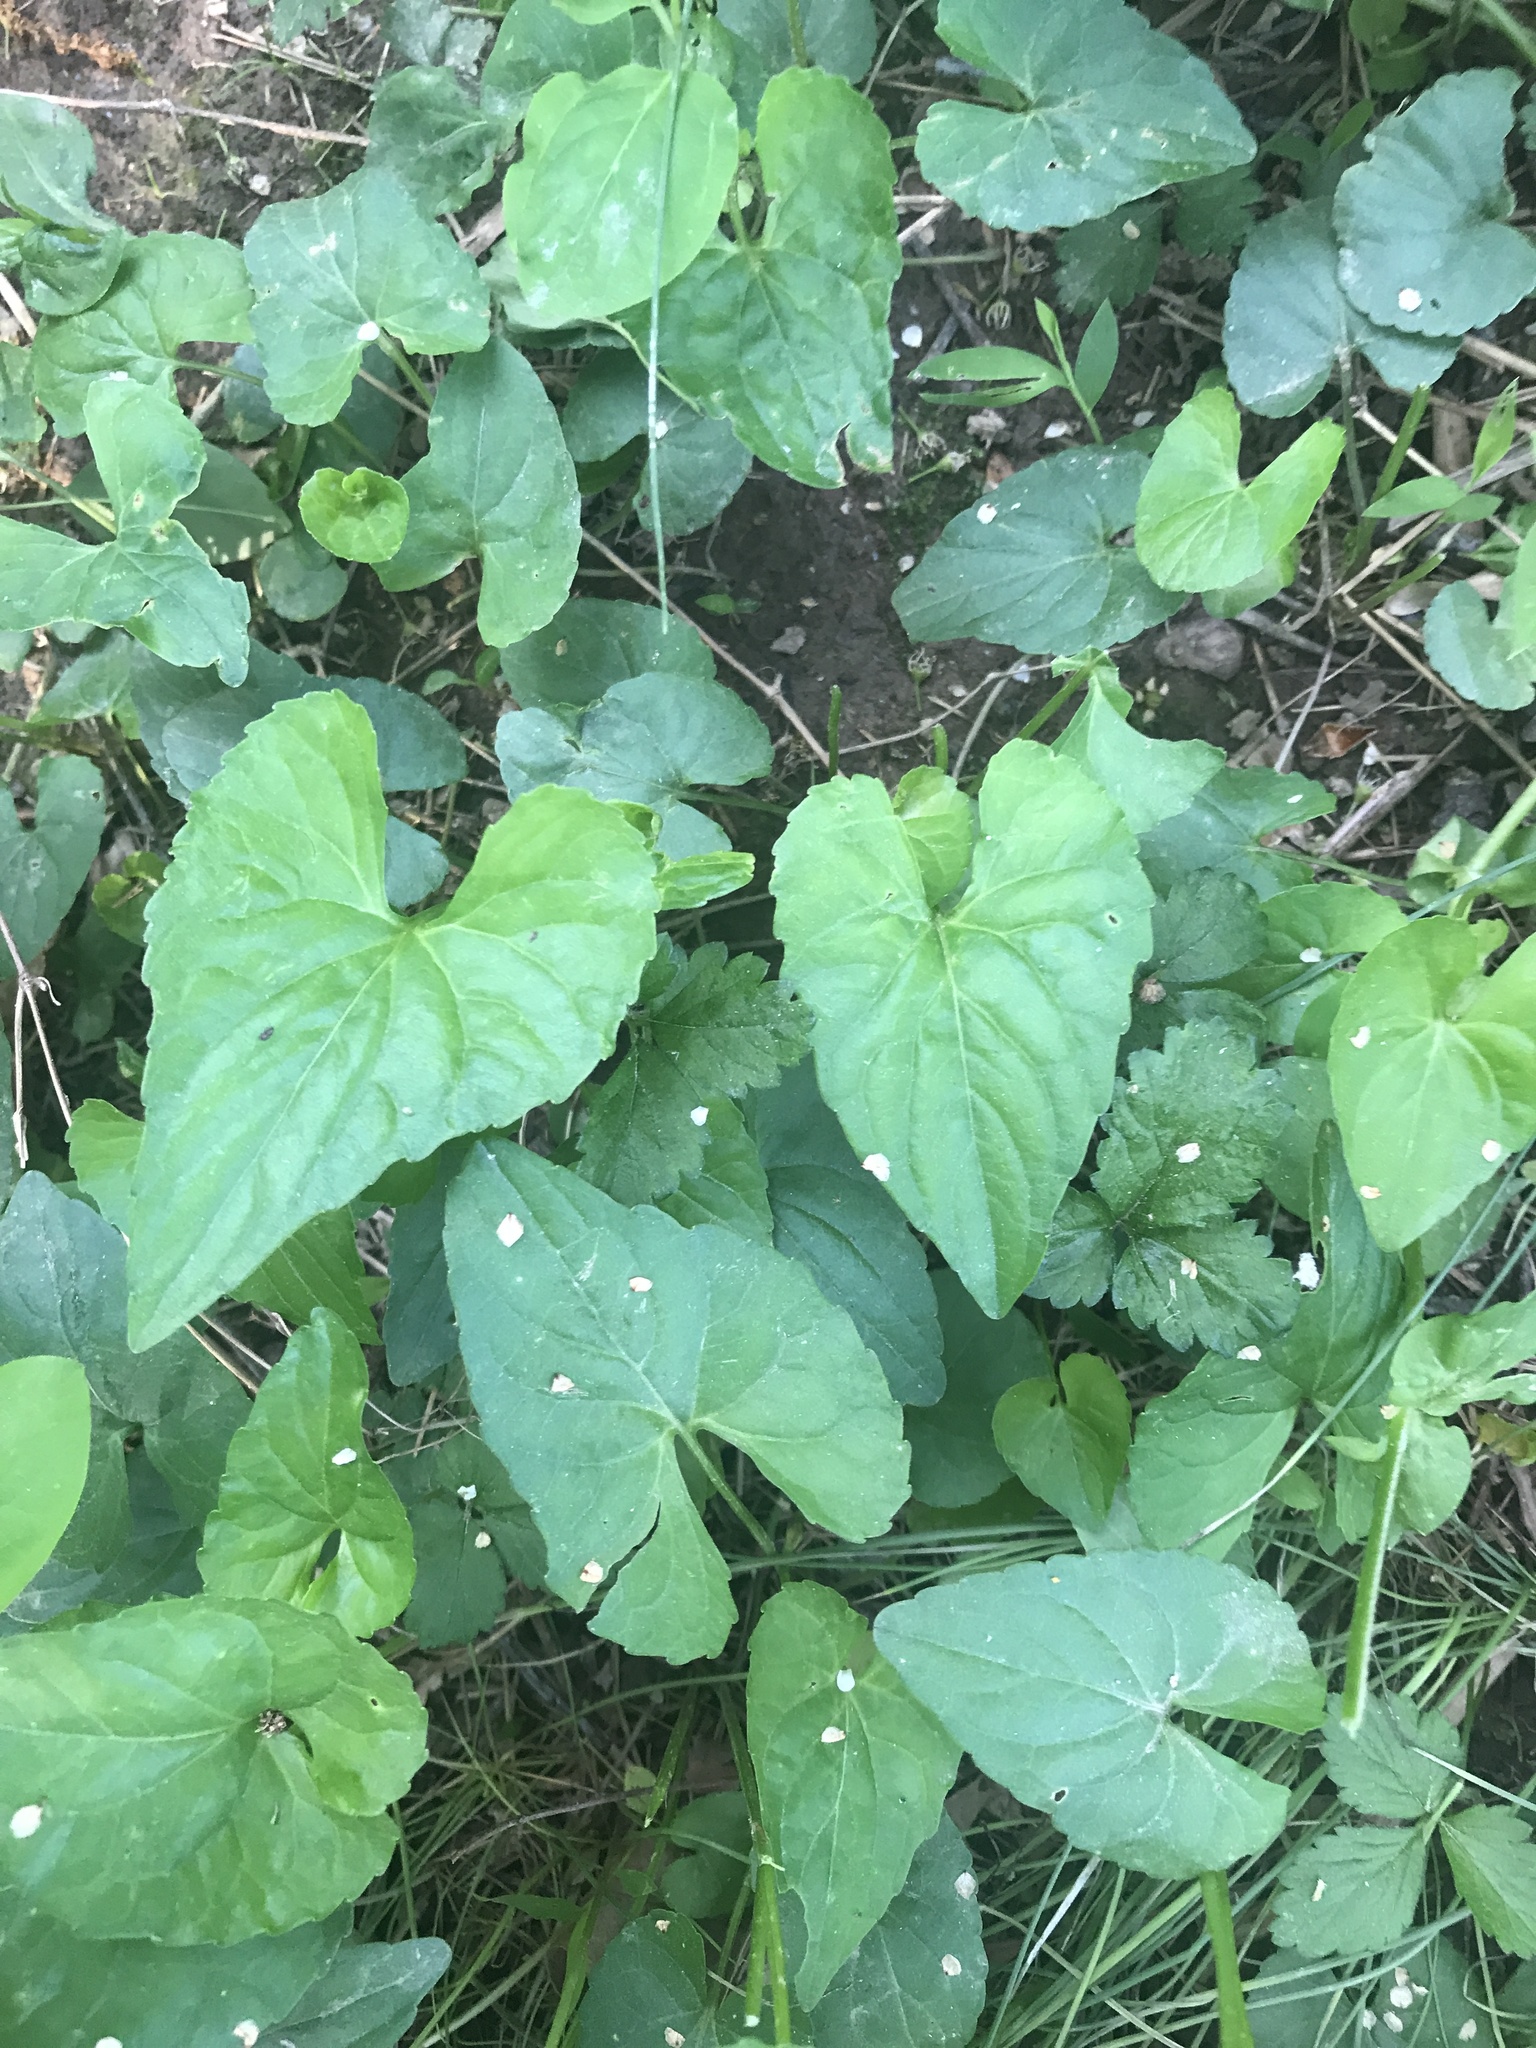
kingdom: Plantae
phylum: Tracheophyta
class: Magnoliopsida
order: Malpighiales
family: Violaceae
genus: Viola
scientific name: Viola sororia
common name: Dooryard violet
